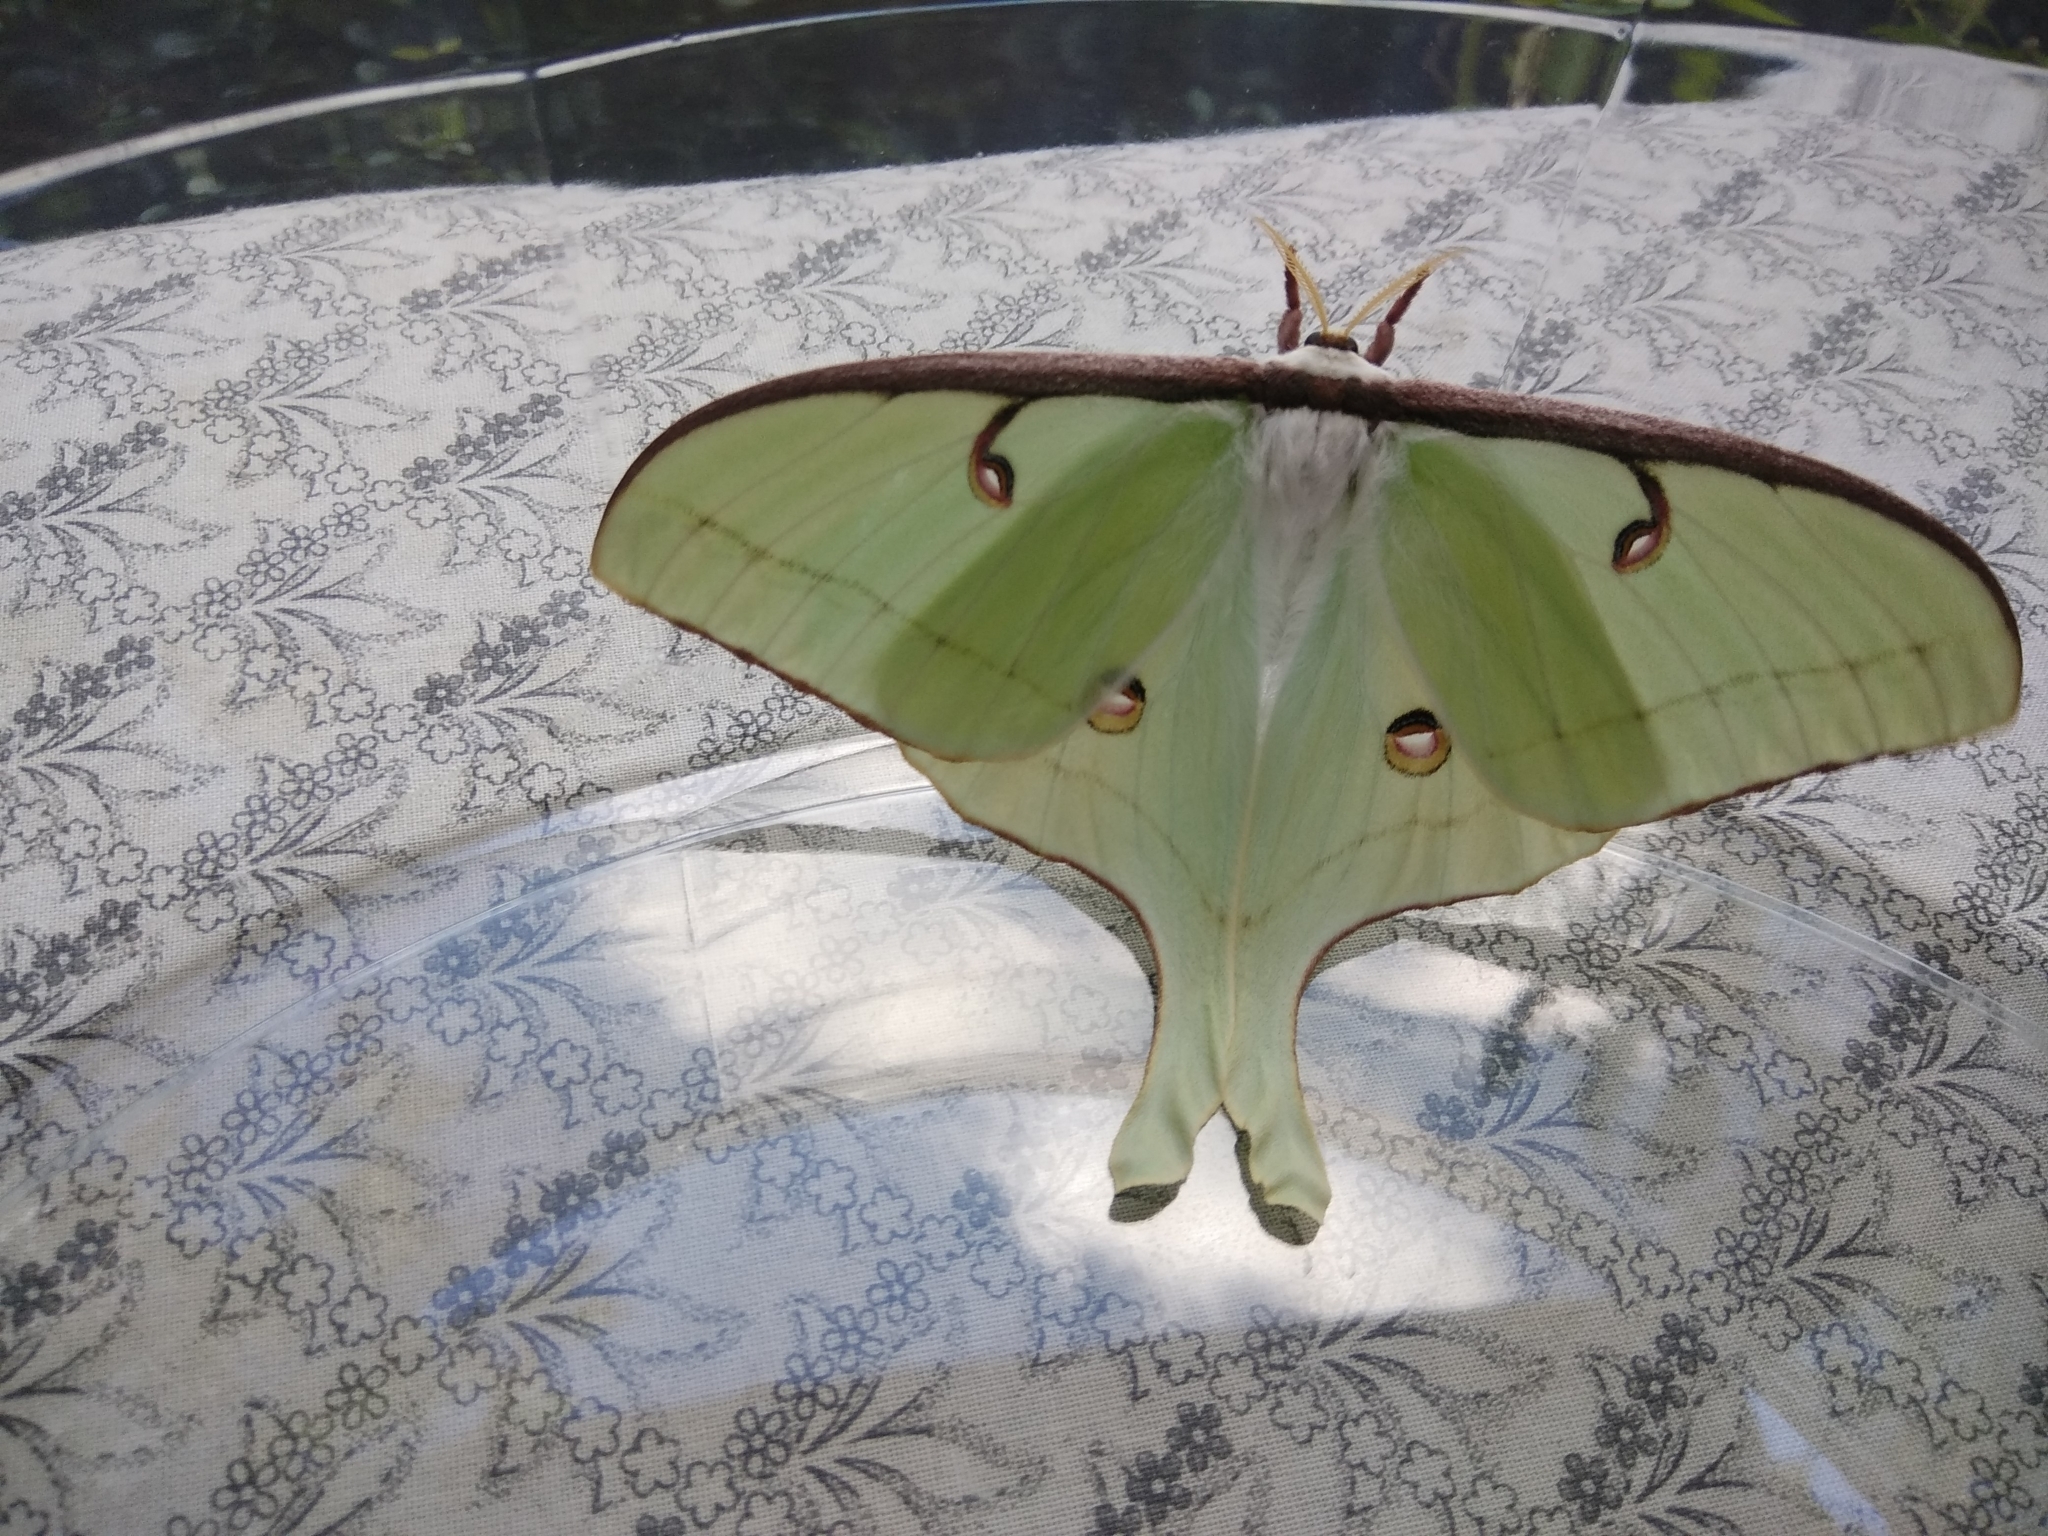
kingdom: Animalia
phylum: Arthropoda
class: Insecta
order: Lepidoptera
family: Saturniidae
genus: Actias
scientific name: Actias luna
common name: Luna moth
